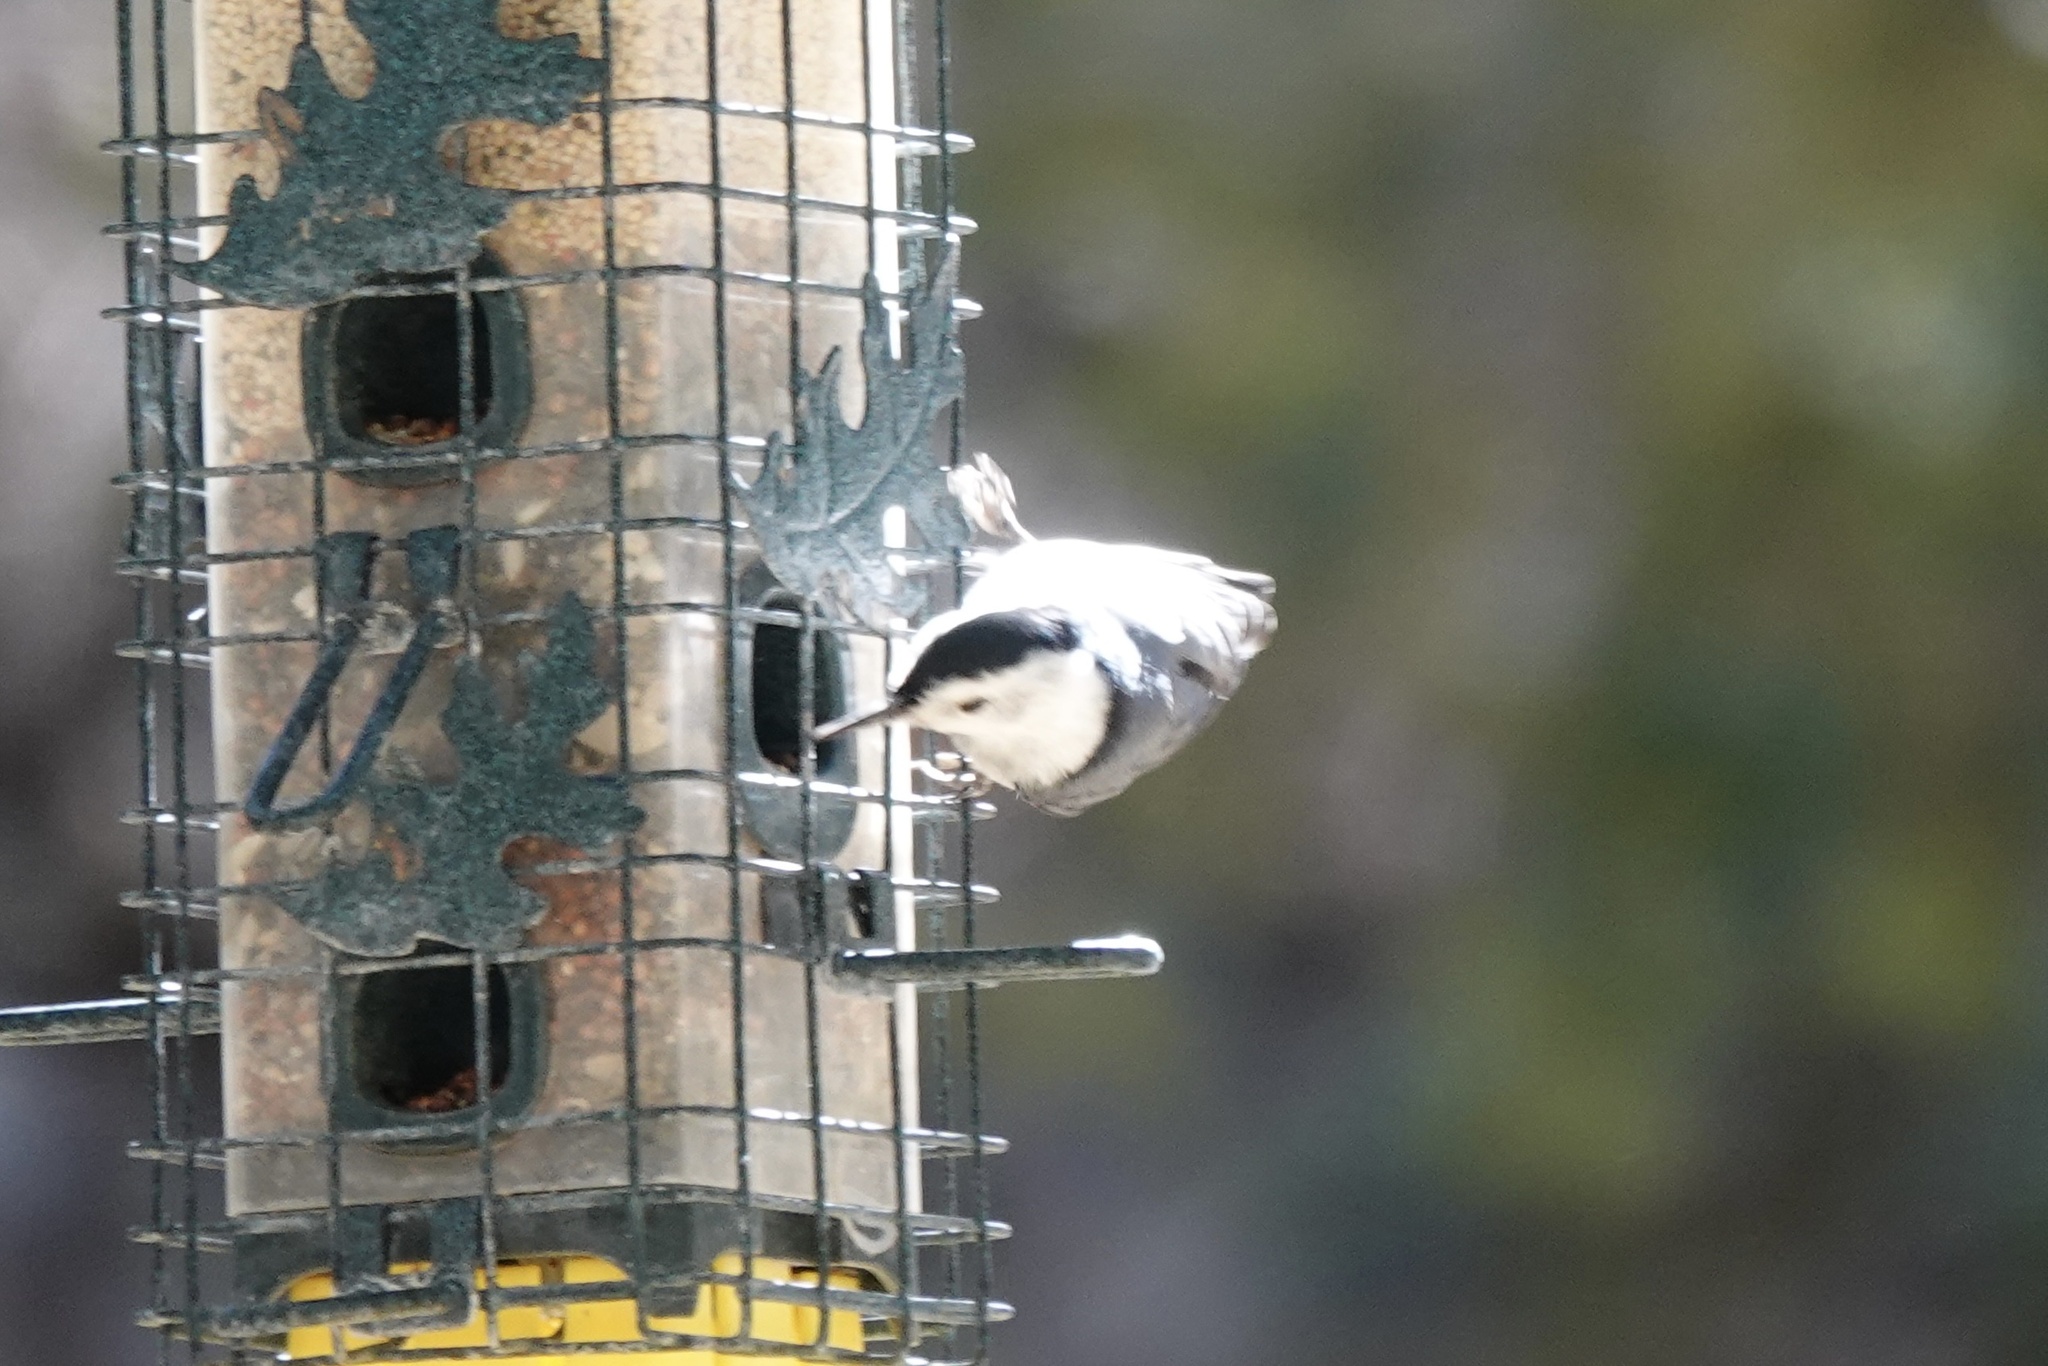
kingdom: Animalia
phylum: Chordata
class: Aves
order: Passeriformes
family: Sittidae
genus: Sitta
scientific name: Sitta carolinensis
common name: White-breasted nuthatch
